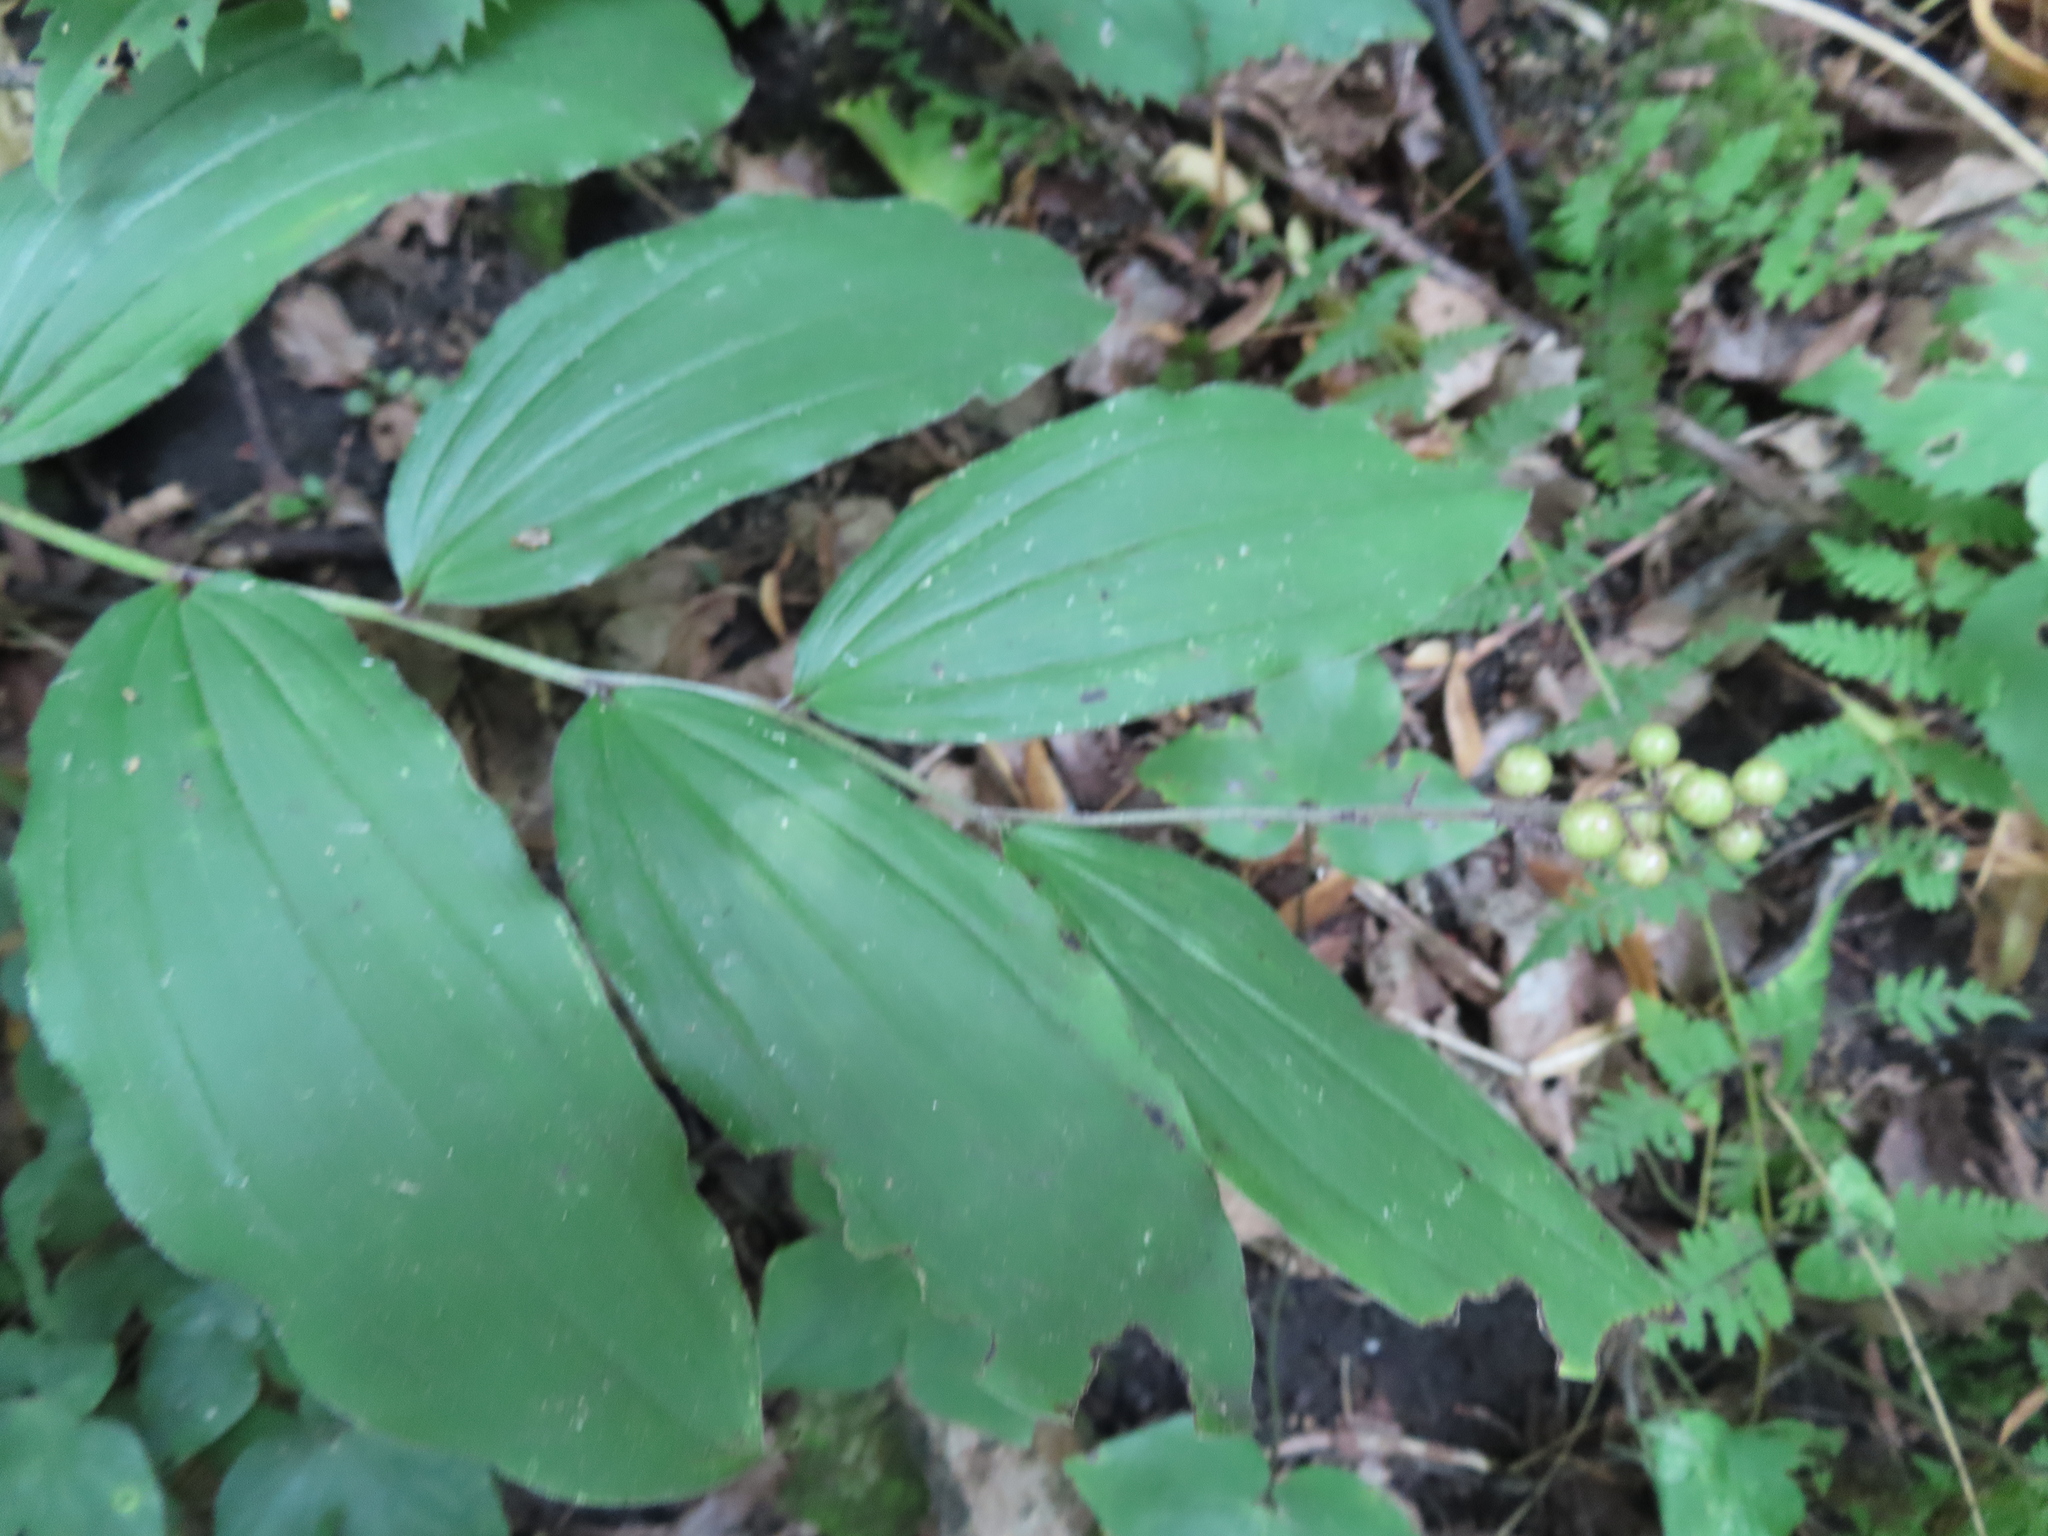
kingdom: Plantae
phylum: Tracheophyta
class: Liliopsida
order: Asparagales
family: Asparagaceae
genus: Maianthemum
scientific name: Maianthemum racemosum
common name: False spikenard
